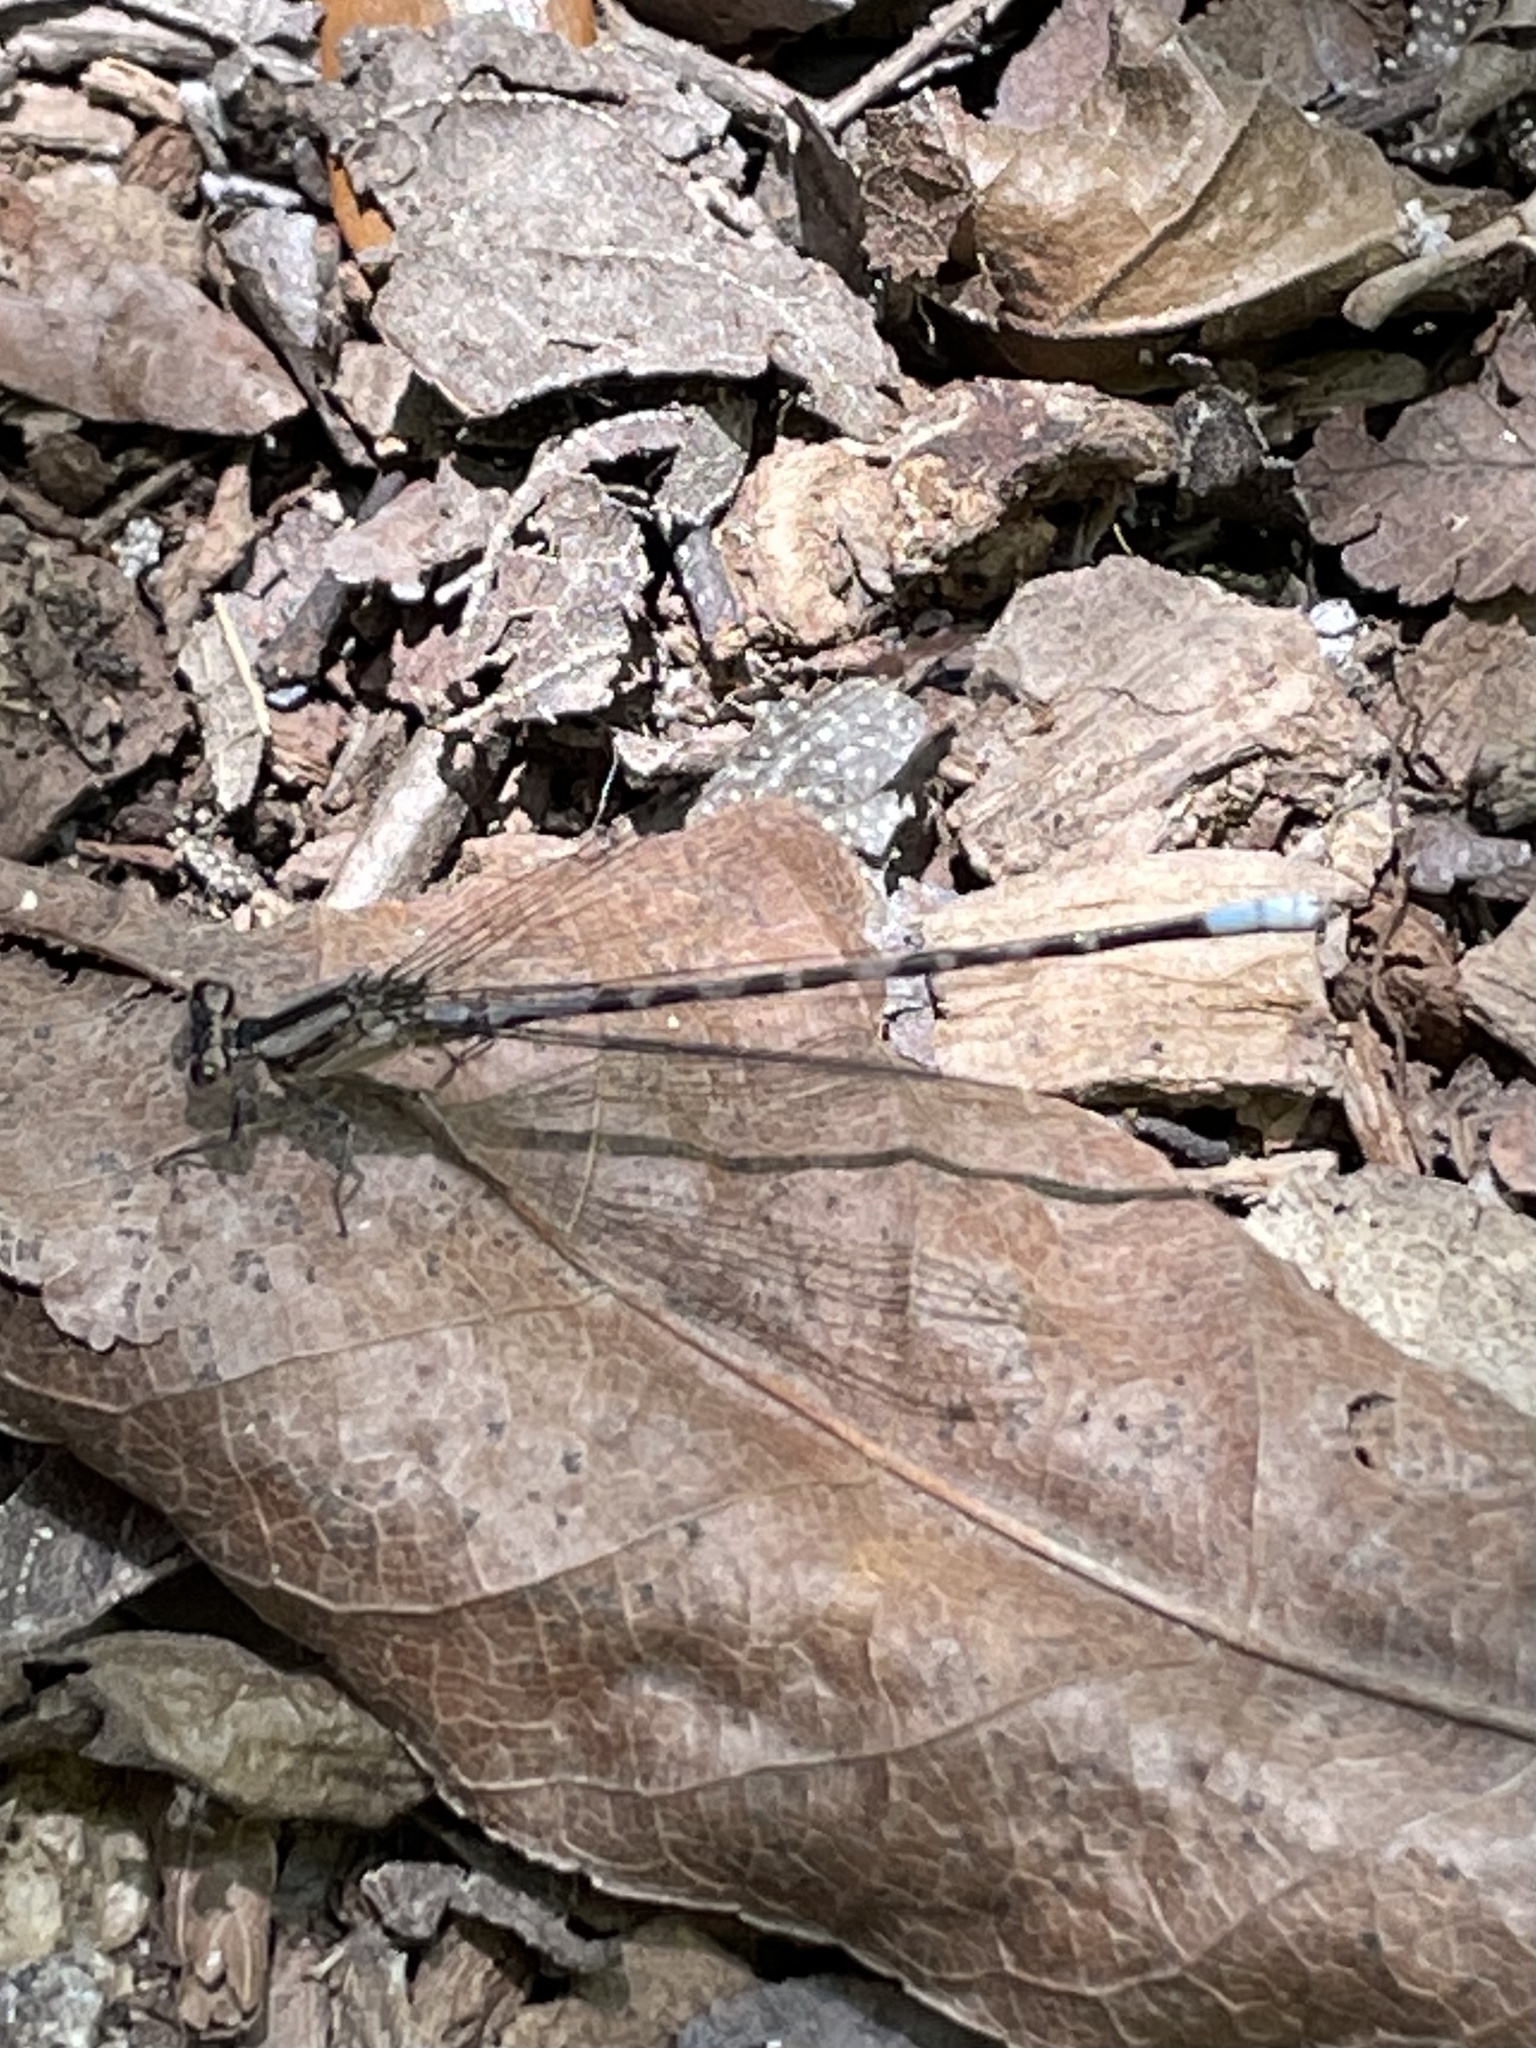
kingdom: Animalia
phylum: Arthropoda
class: Insecta
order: Odonata
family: Coenagrionidae
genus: Argia
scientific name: Argia immunda
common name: Kiowa dancer
